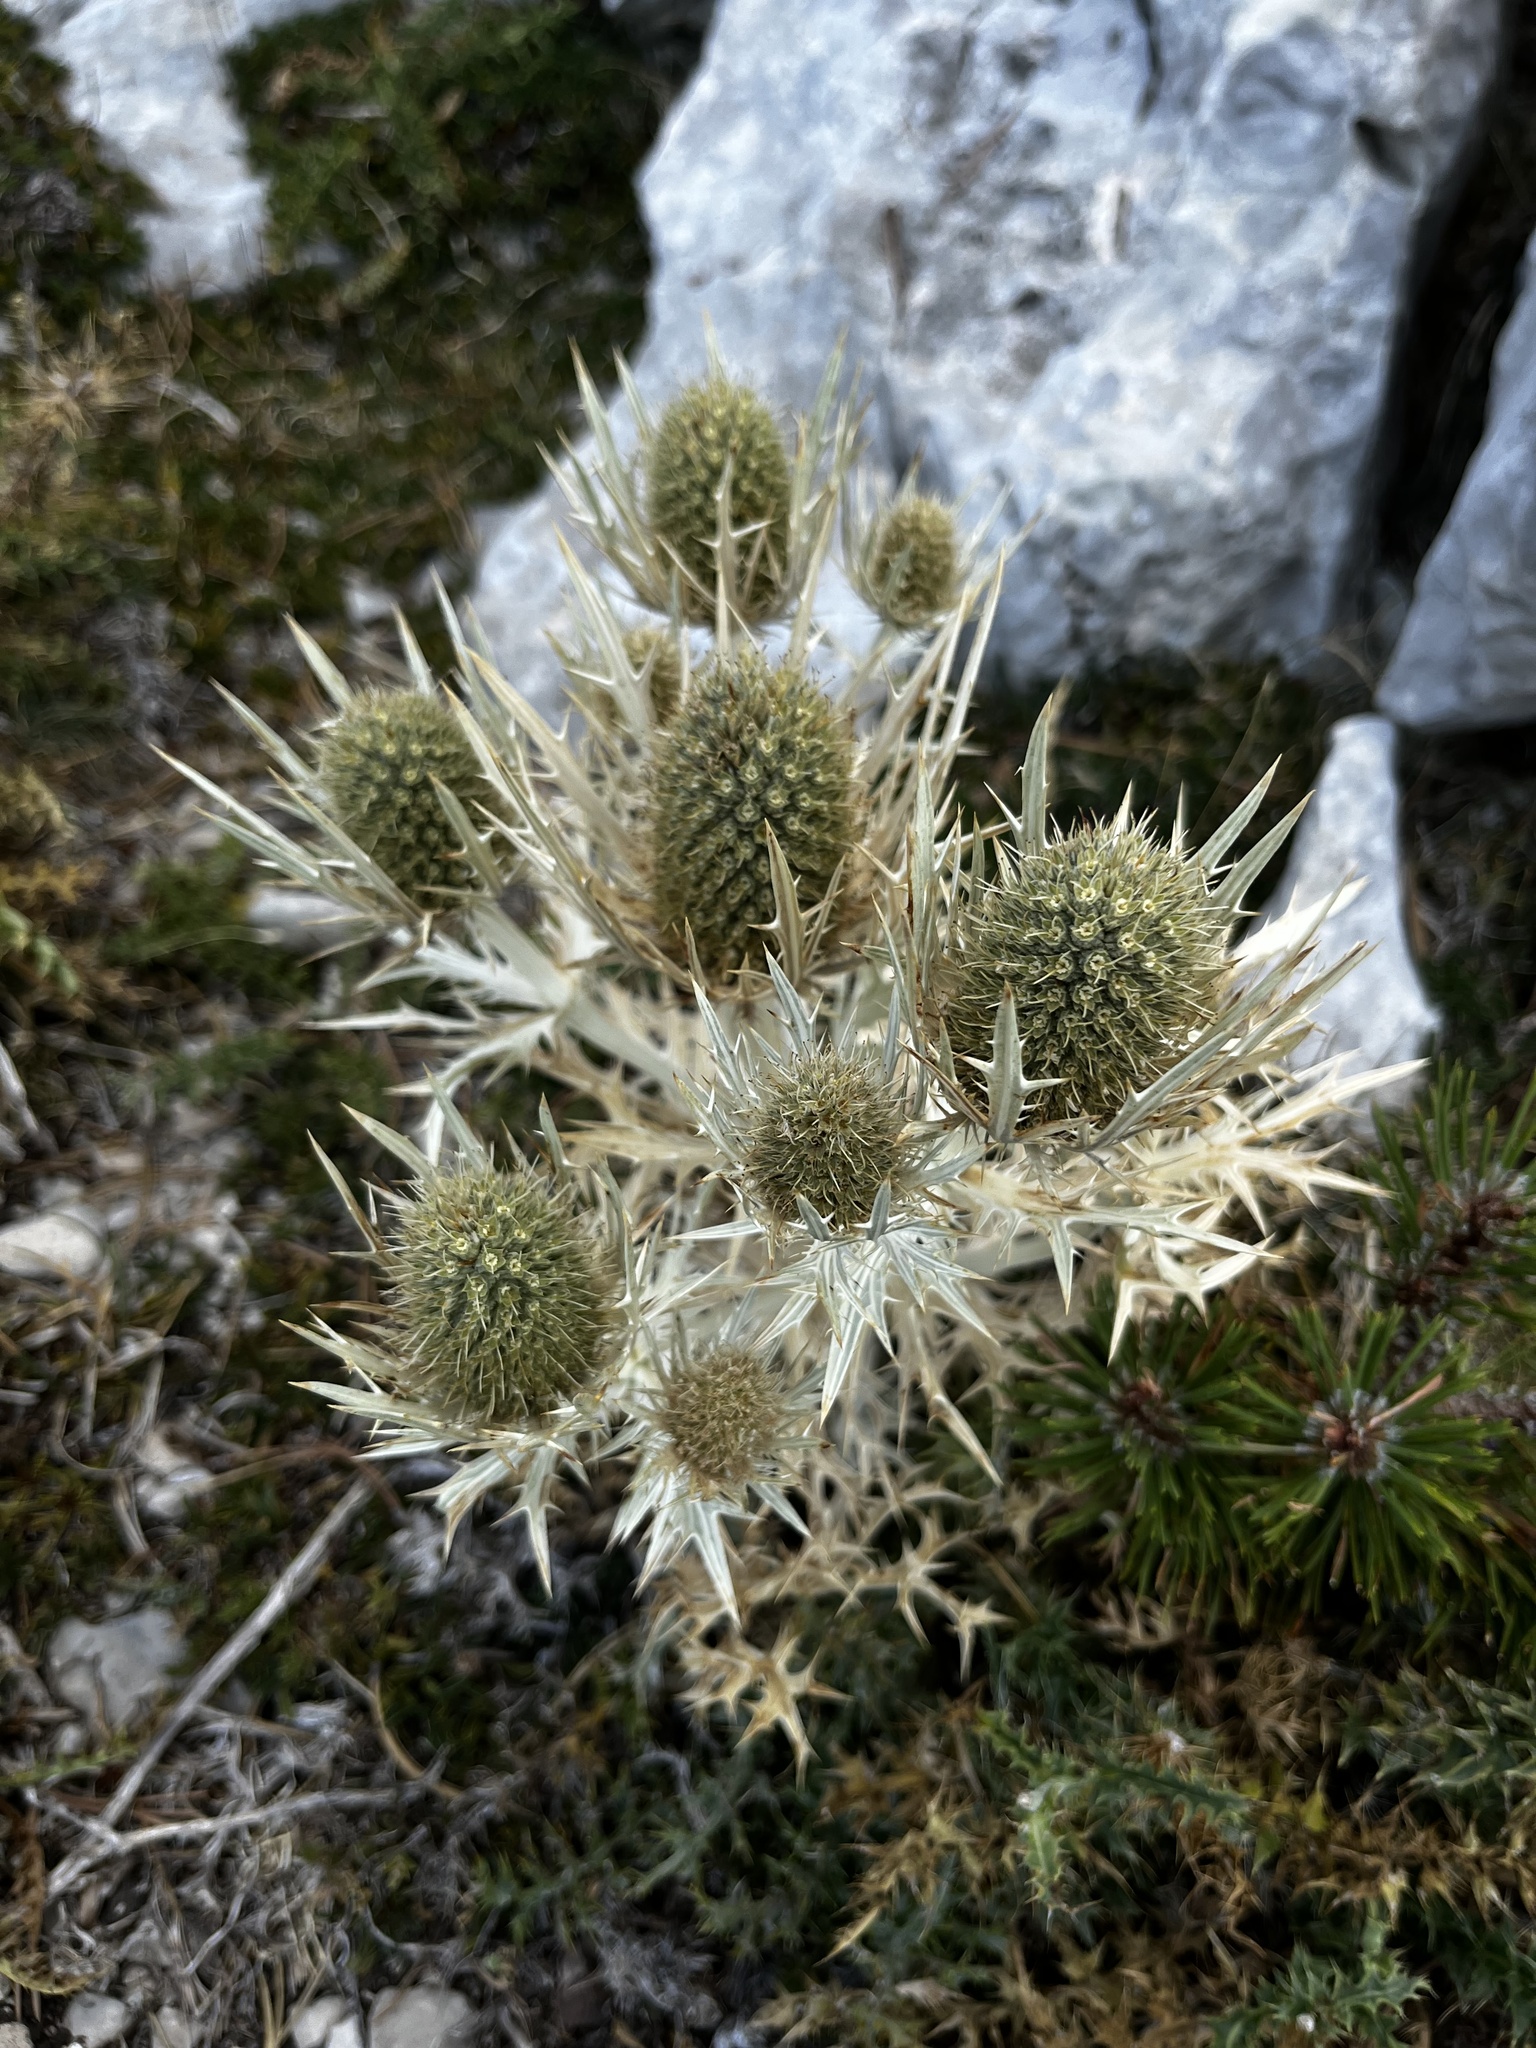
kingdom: Plantae
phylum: Tracheophyta
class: Magnoliopsida
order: Apiales
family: Apiaceae
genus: Eryngium
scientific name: Eryngium spinalba
